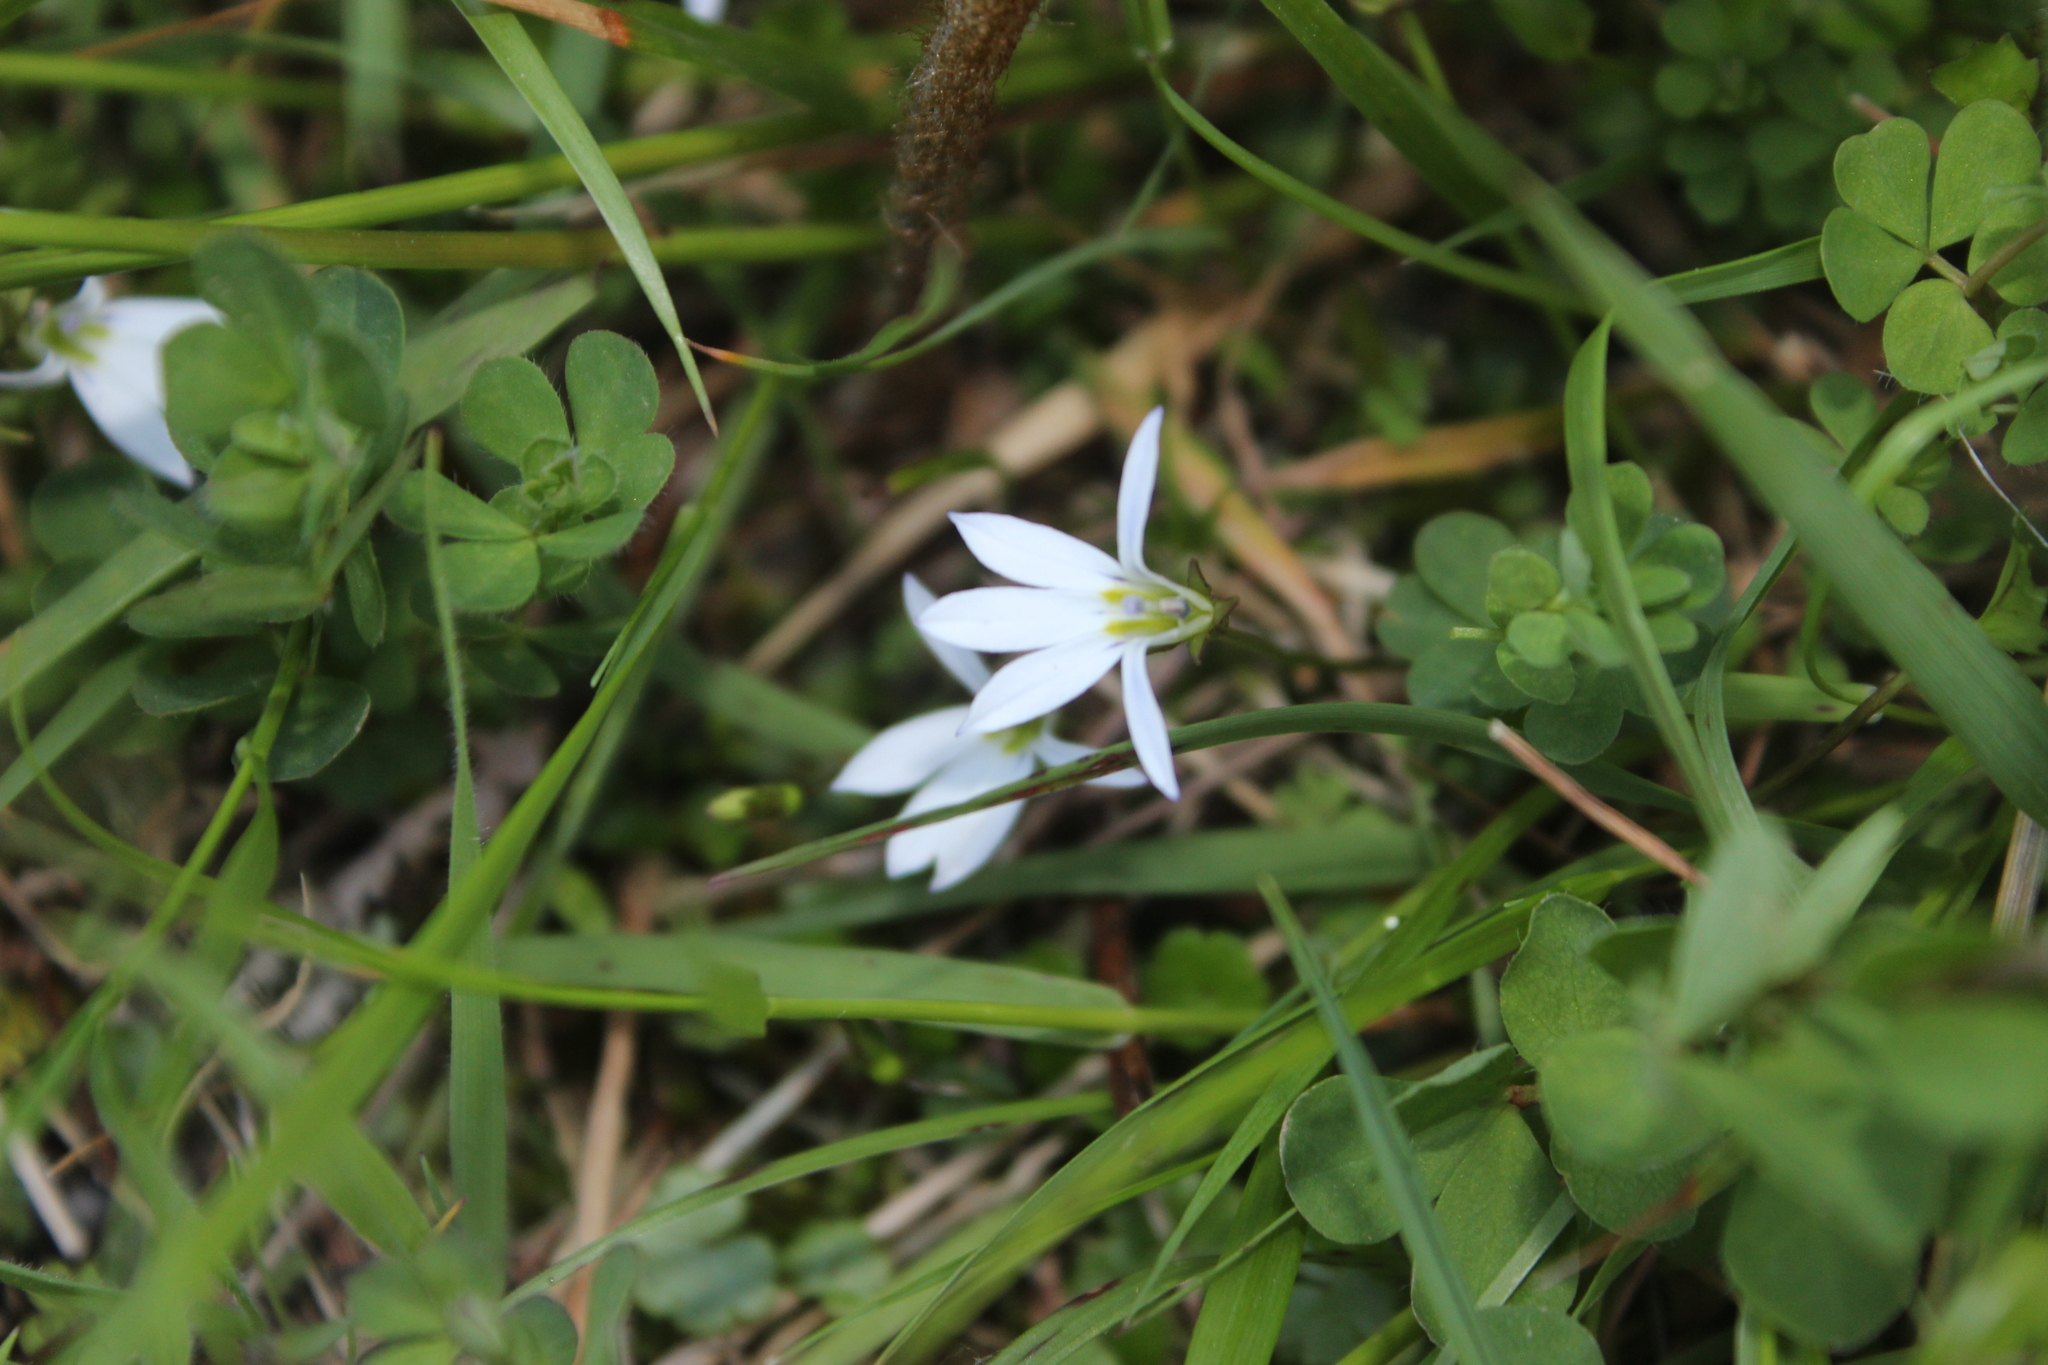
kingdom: Plantae
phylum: Tracheophyta
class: Magnoliopsida
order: Asterales
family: Campanulaceae
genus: Lobelia
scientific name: Lobelia angulata
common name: Lawn lobelia
